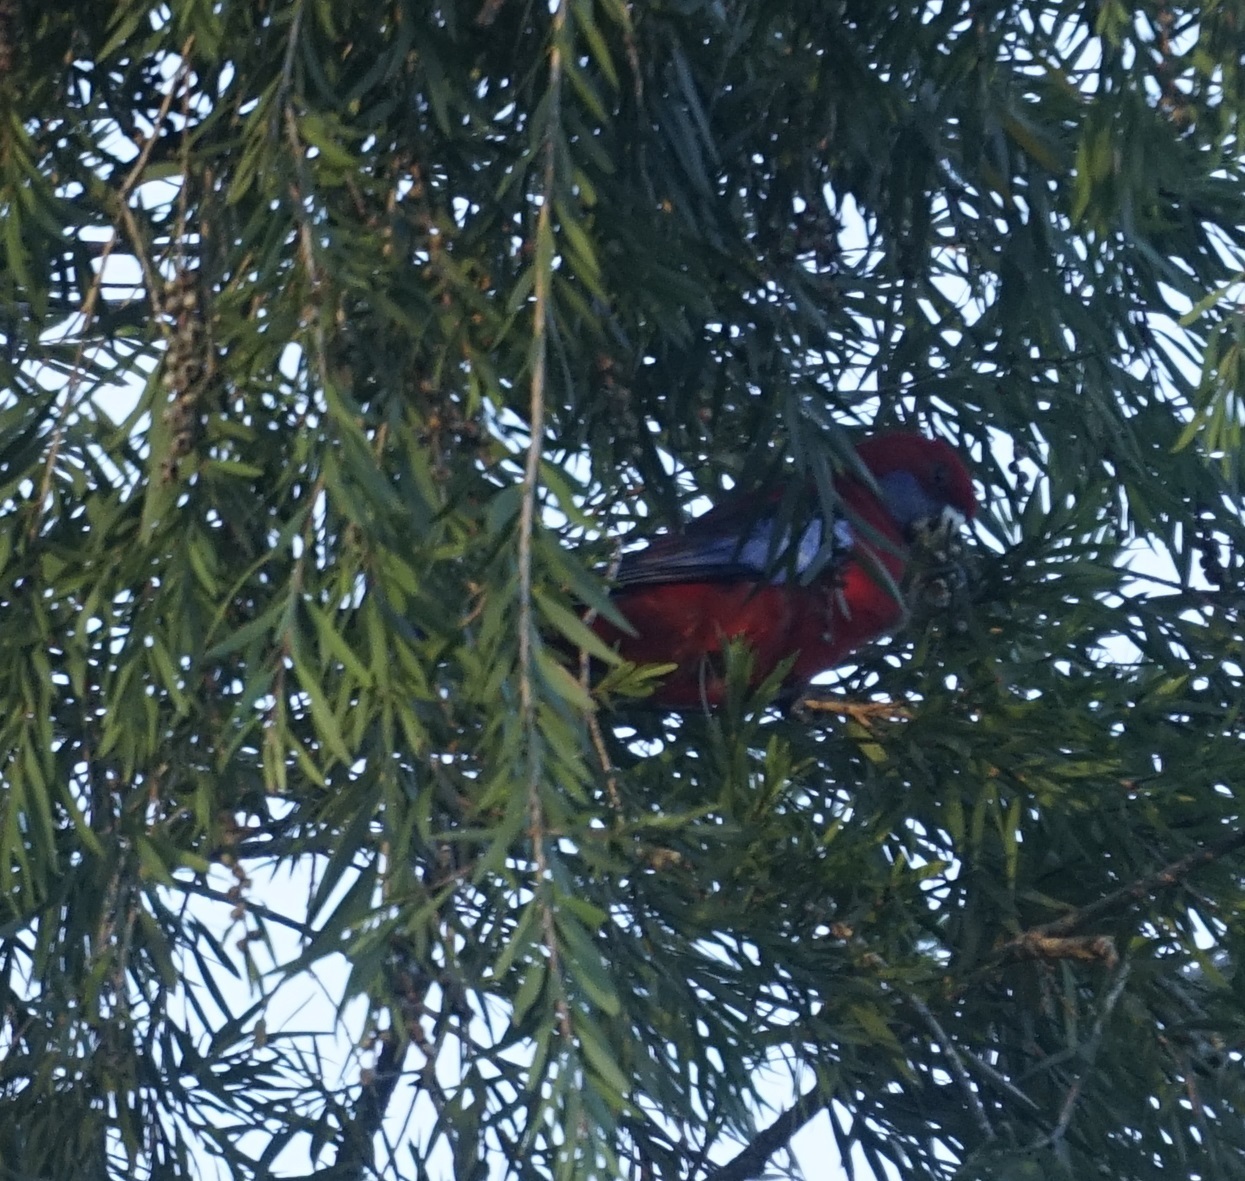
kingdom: Animalia
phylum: Chordata
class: Aves
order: Psittaciformes
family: Psittacidae
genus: Platycercus
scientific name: Platycercus elegans
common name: Crimson rosella
